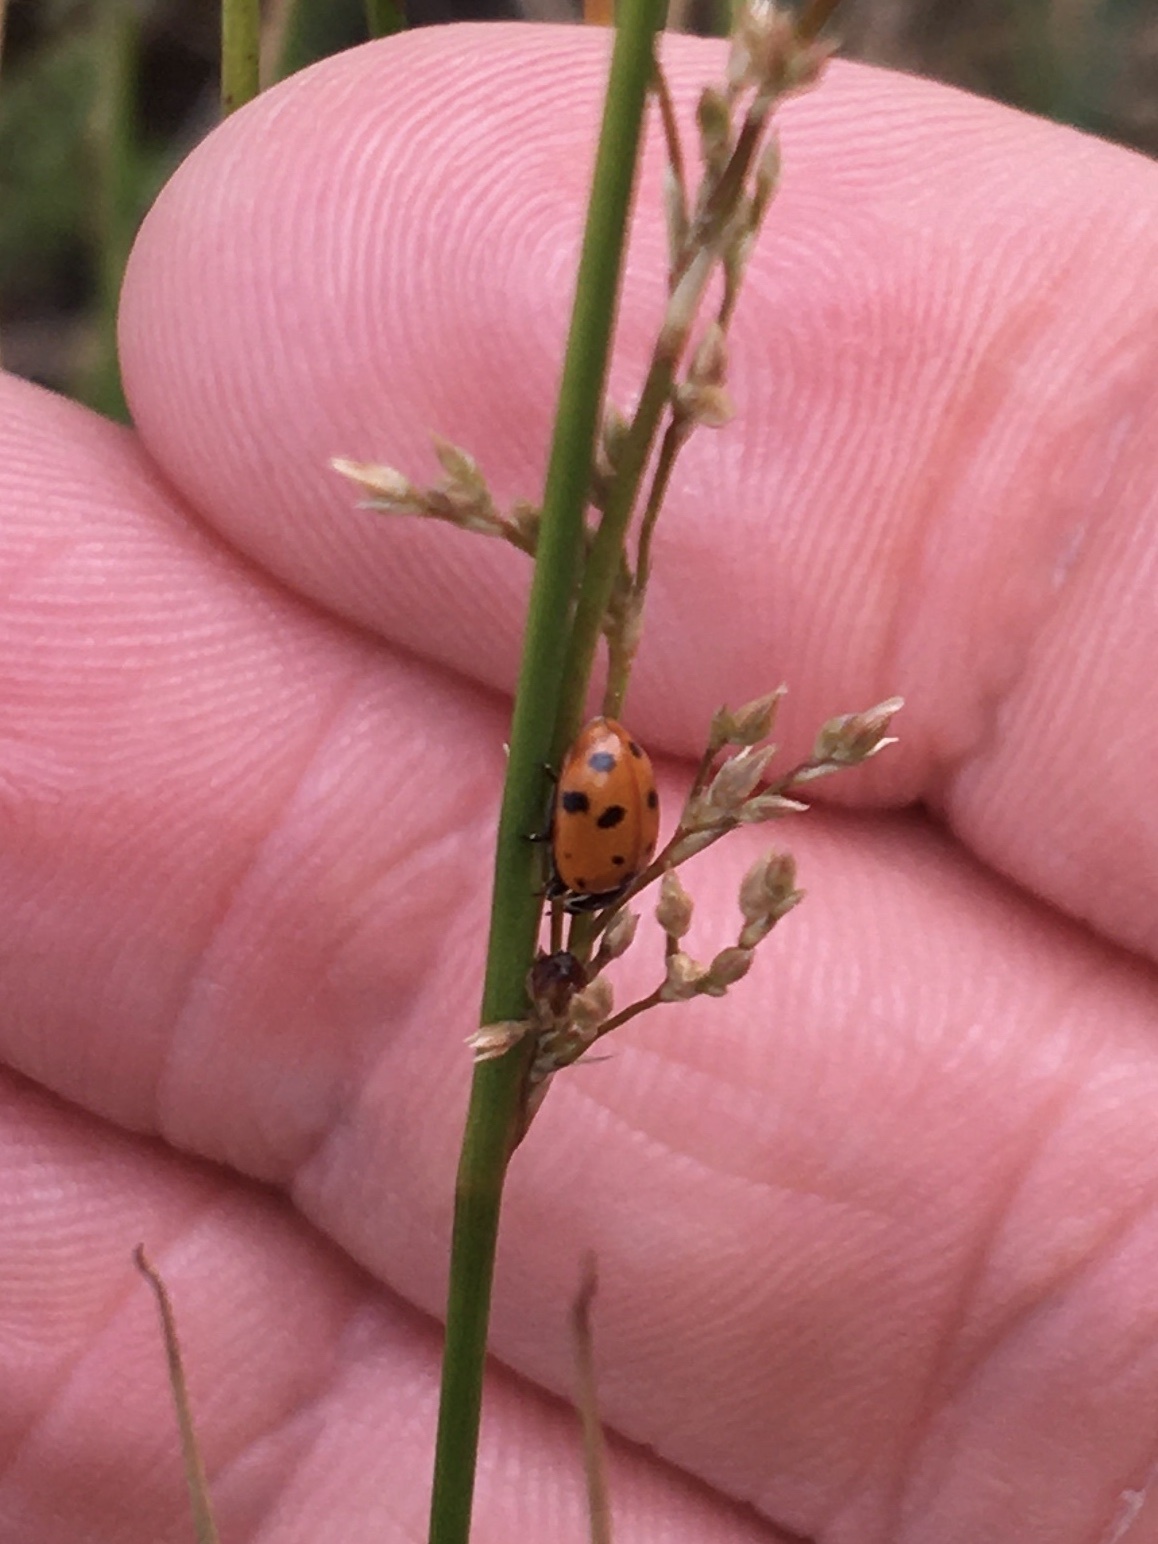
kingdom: Animalia
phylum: Arthropoda
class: Insecta
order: Coleoptera
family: Coccinellidae
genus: Hippodamia
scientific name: Hippodamia variegata
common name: Ladybird beetle
